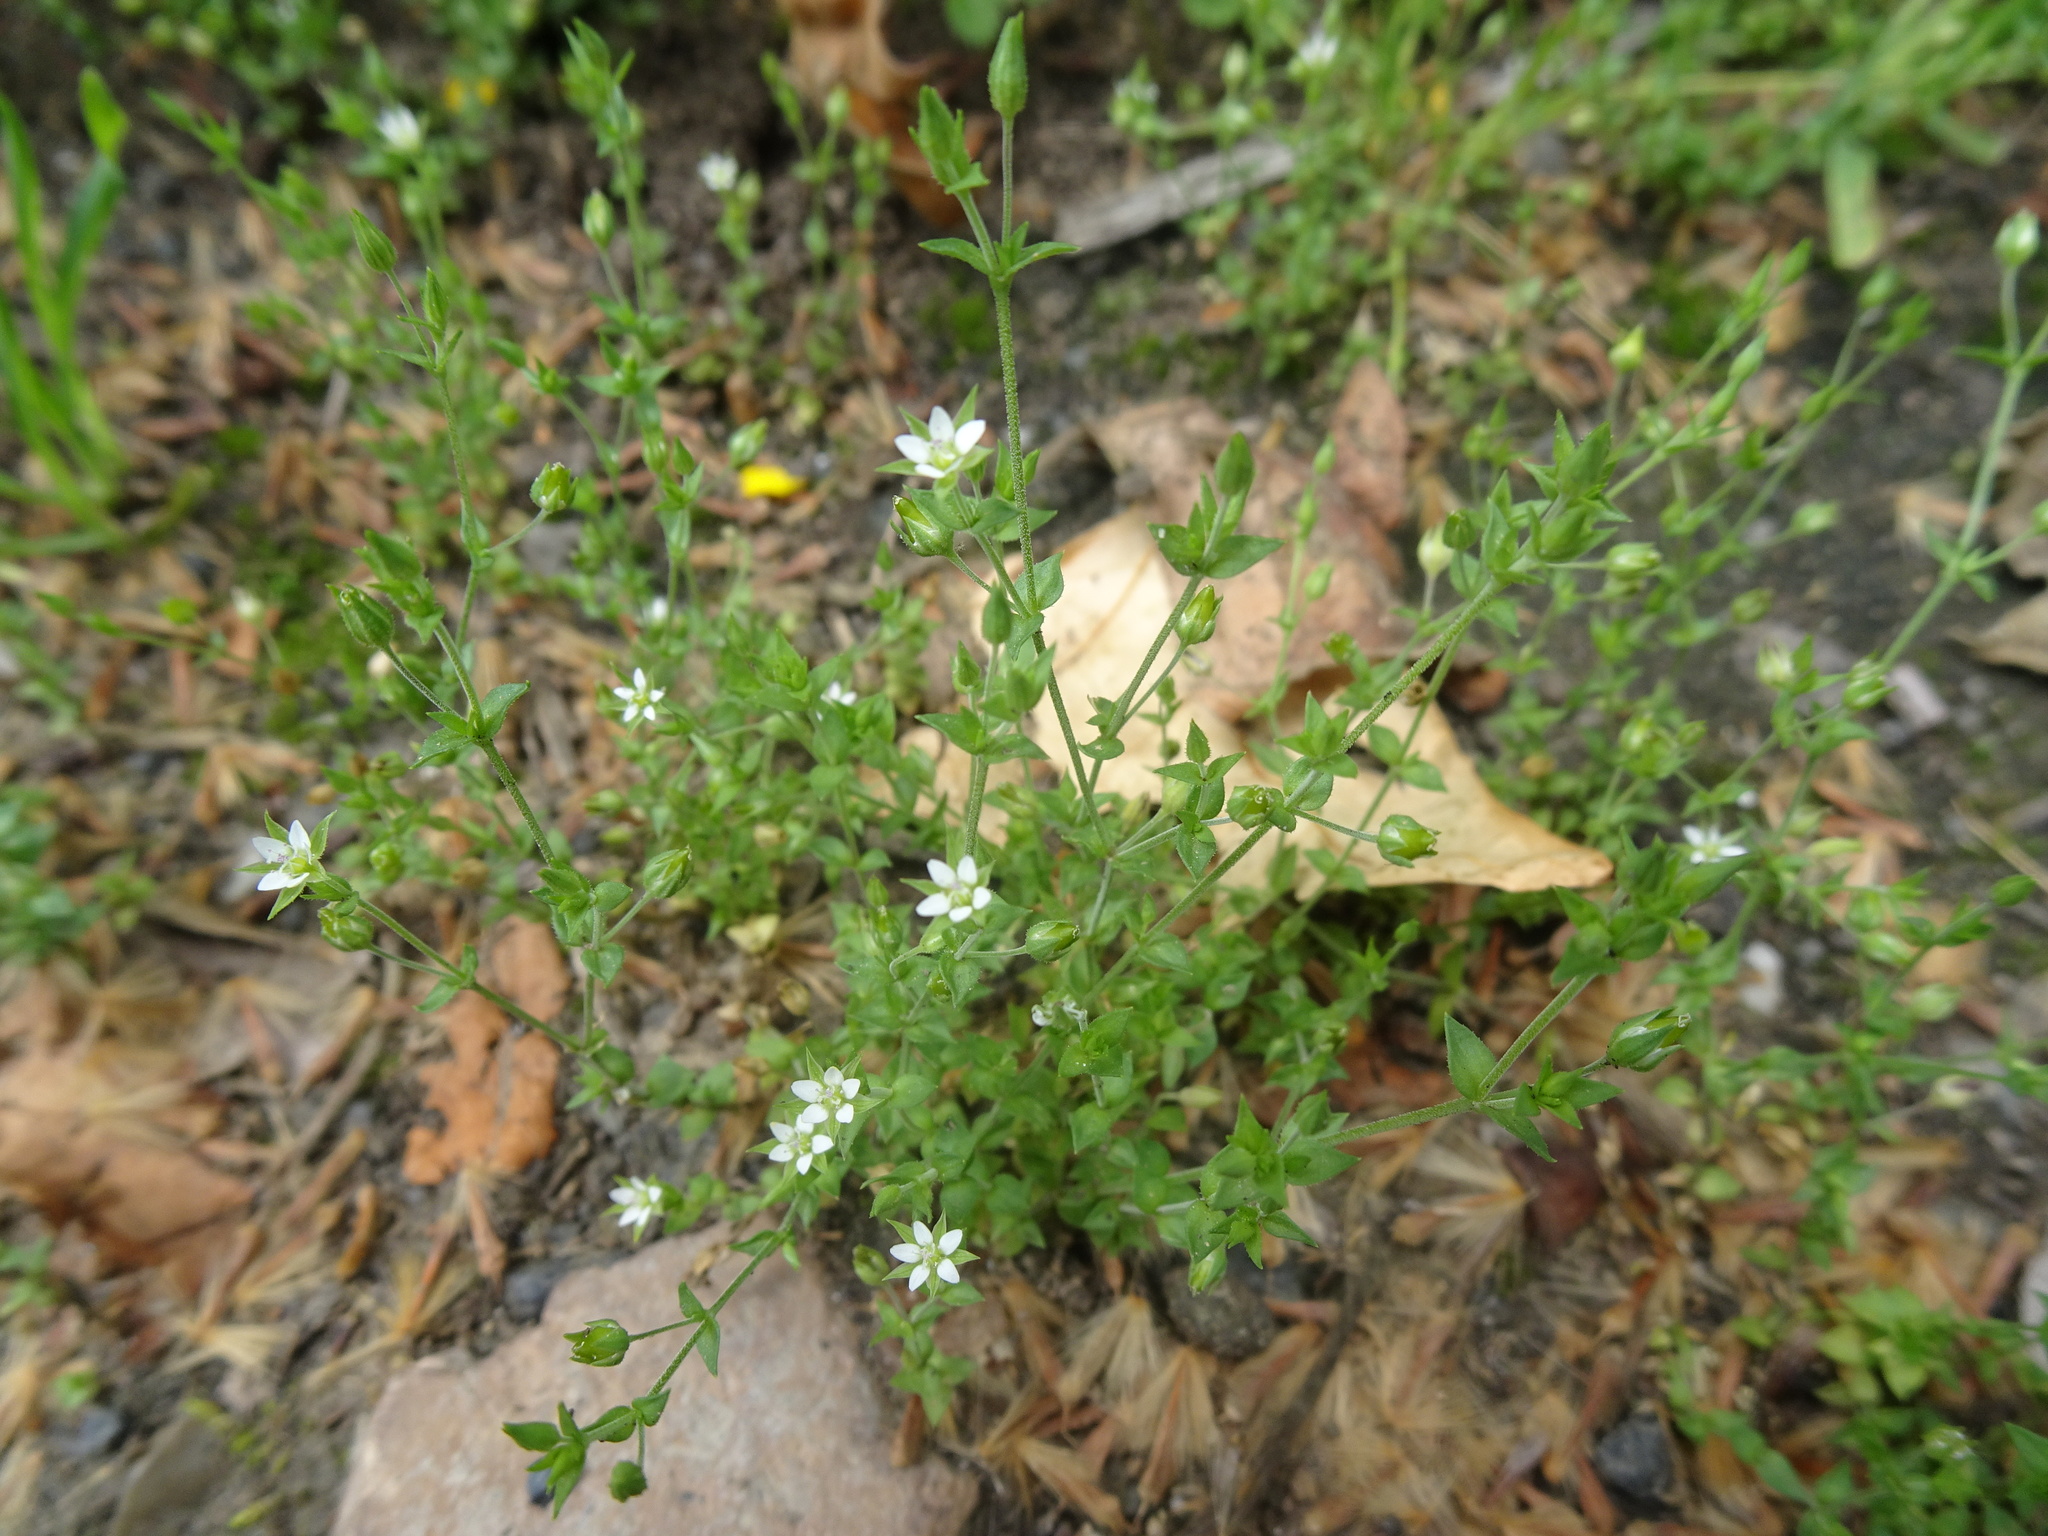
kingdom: Plantae
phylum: Tracheophyta
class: Magnoliopsida
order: Caryophyllales
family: Caryophyllaceae
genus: Arenaria
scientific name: Arenaria serpyllifolia
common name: Thyme-leaved sandwort
